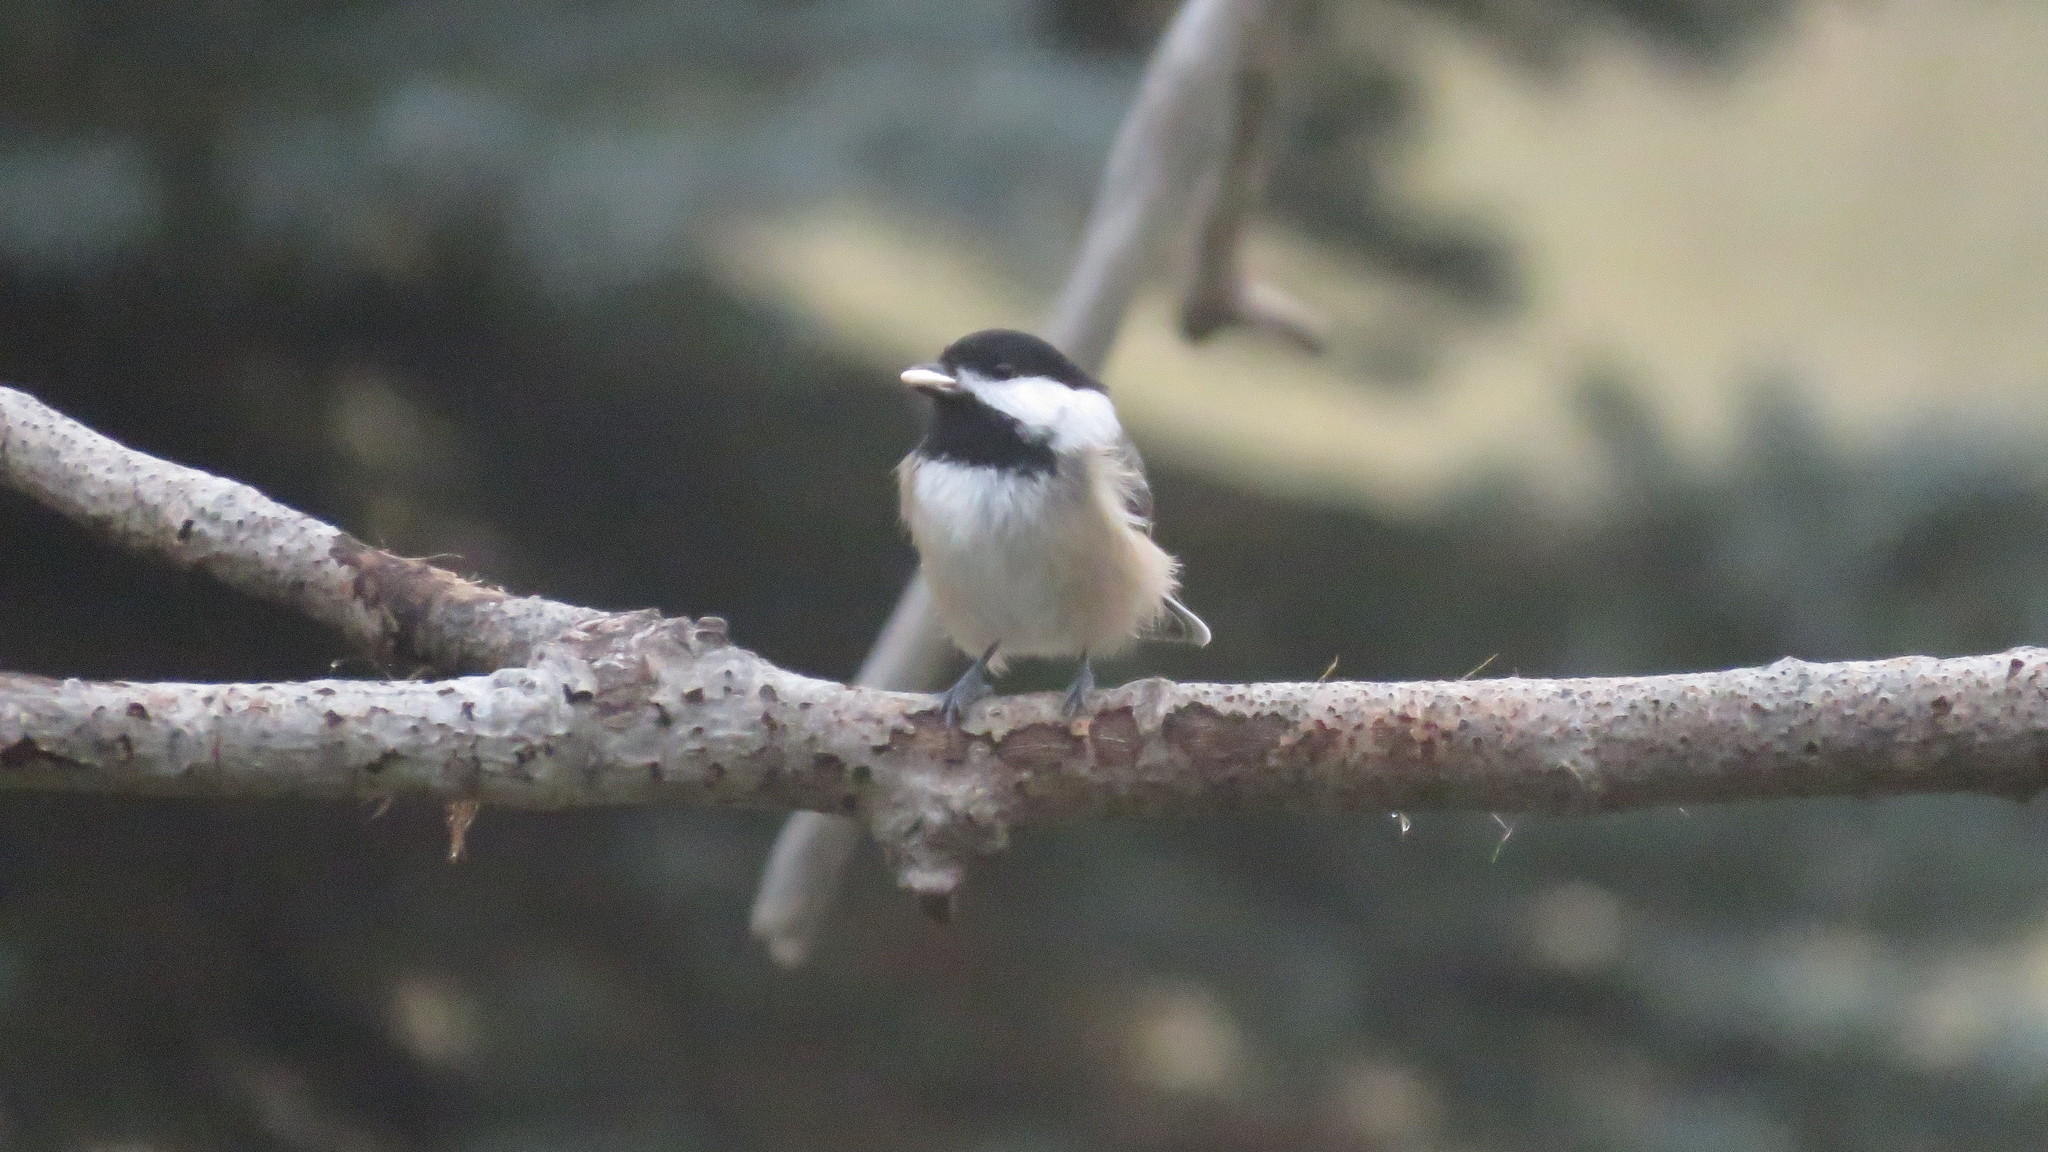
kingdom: Animalia
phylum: Chordata
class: Aves
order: Passeriformes
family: Paridae
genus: Poecile
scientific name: Poecile atricapillus
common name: Black-capped chickadee
